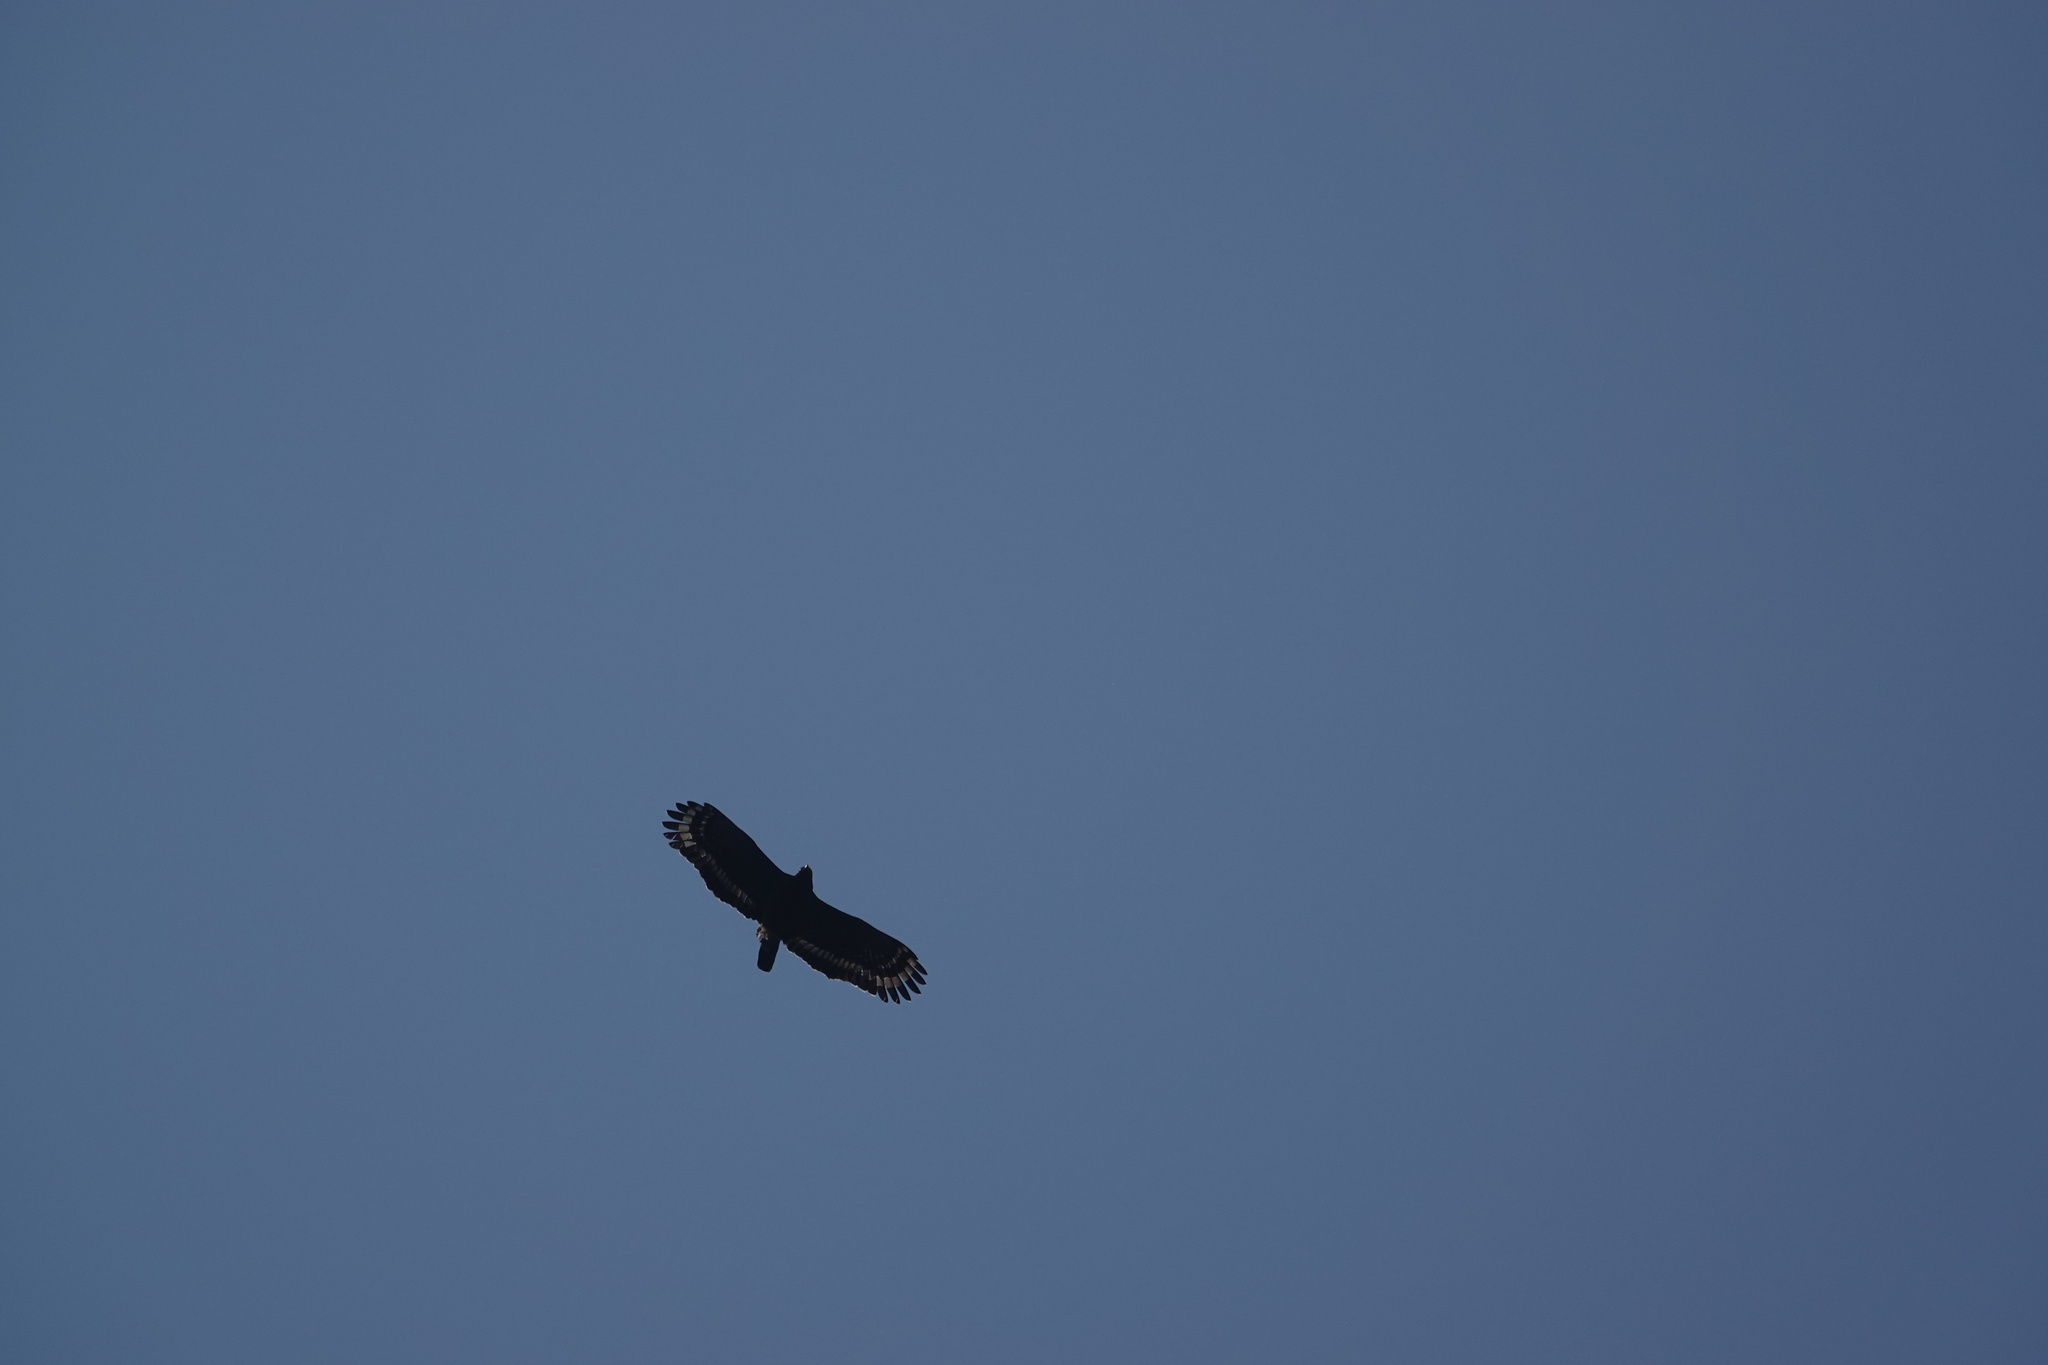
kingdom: Animalia
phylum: Chordata
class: Aves
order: Accipitriformes
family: Accipitridae
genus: Spilornis
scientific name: Spilornis cheela
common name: Crested serpent eagle
